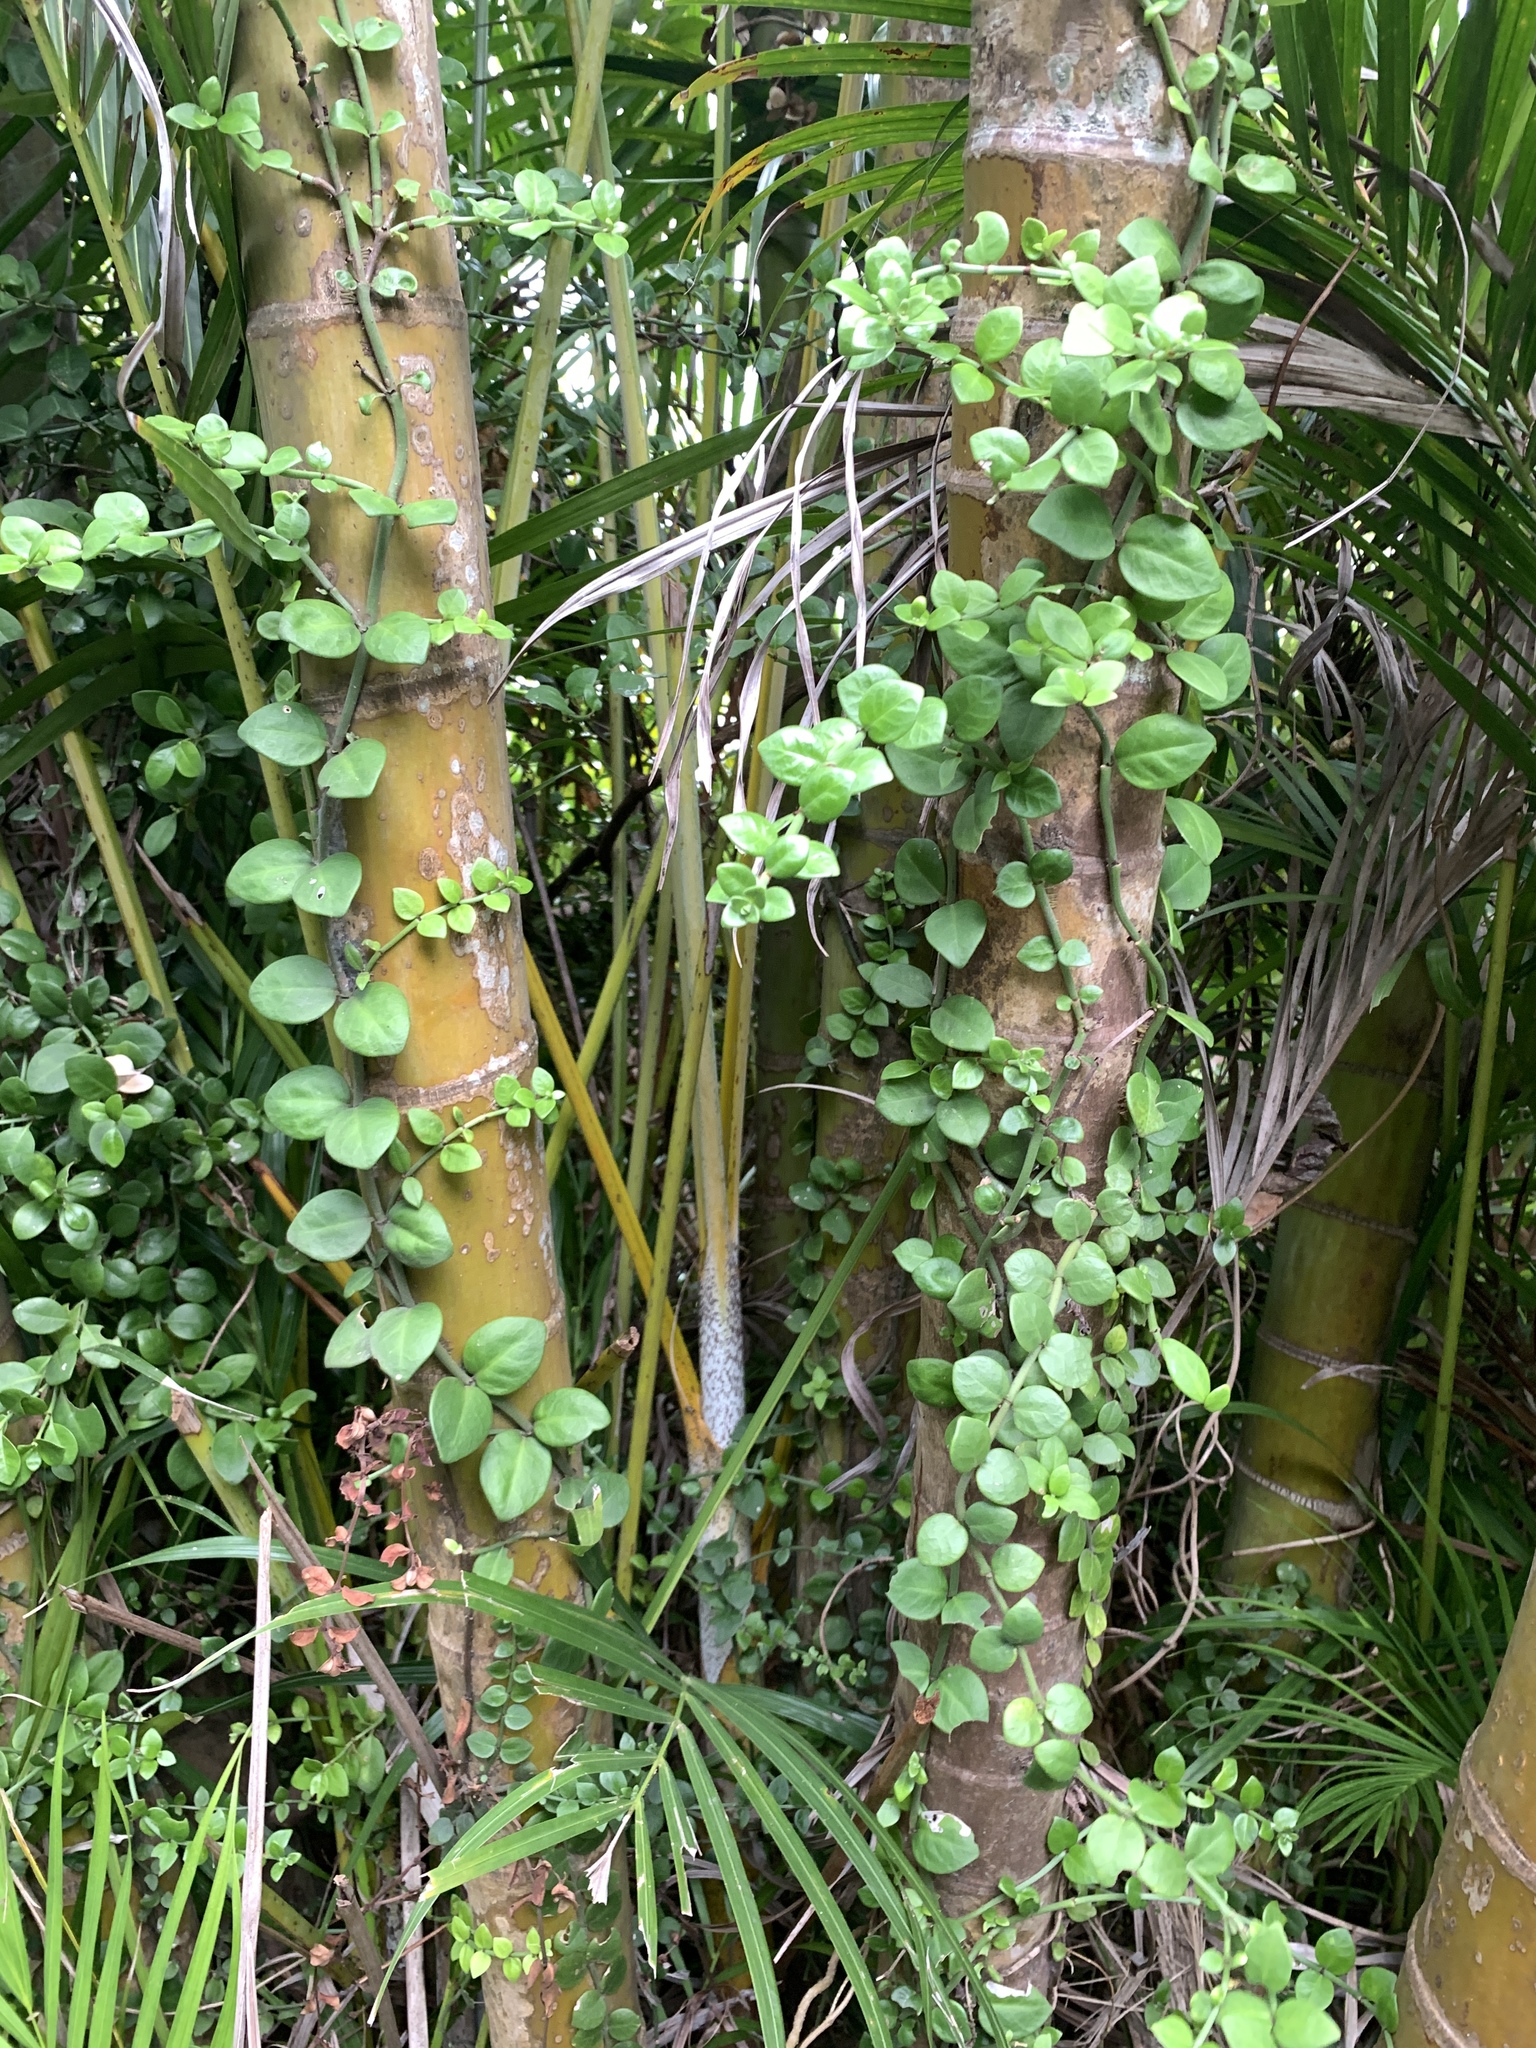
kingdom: Plantae
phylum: Tracheophyta
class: Magnoliopsida
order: Gentianales
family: Rubiaceae
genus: Psychotria
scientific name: Psychotria serpens
